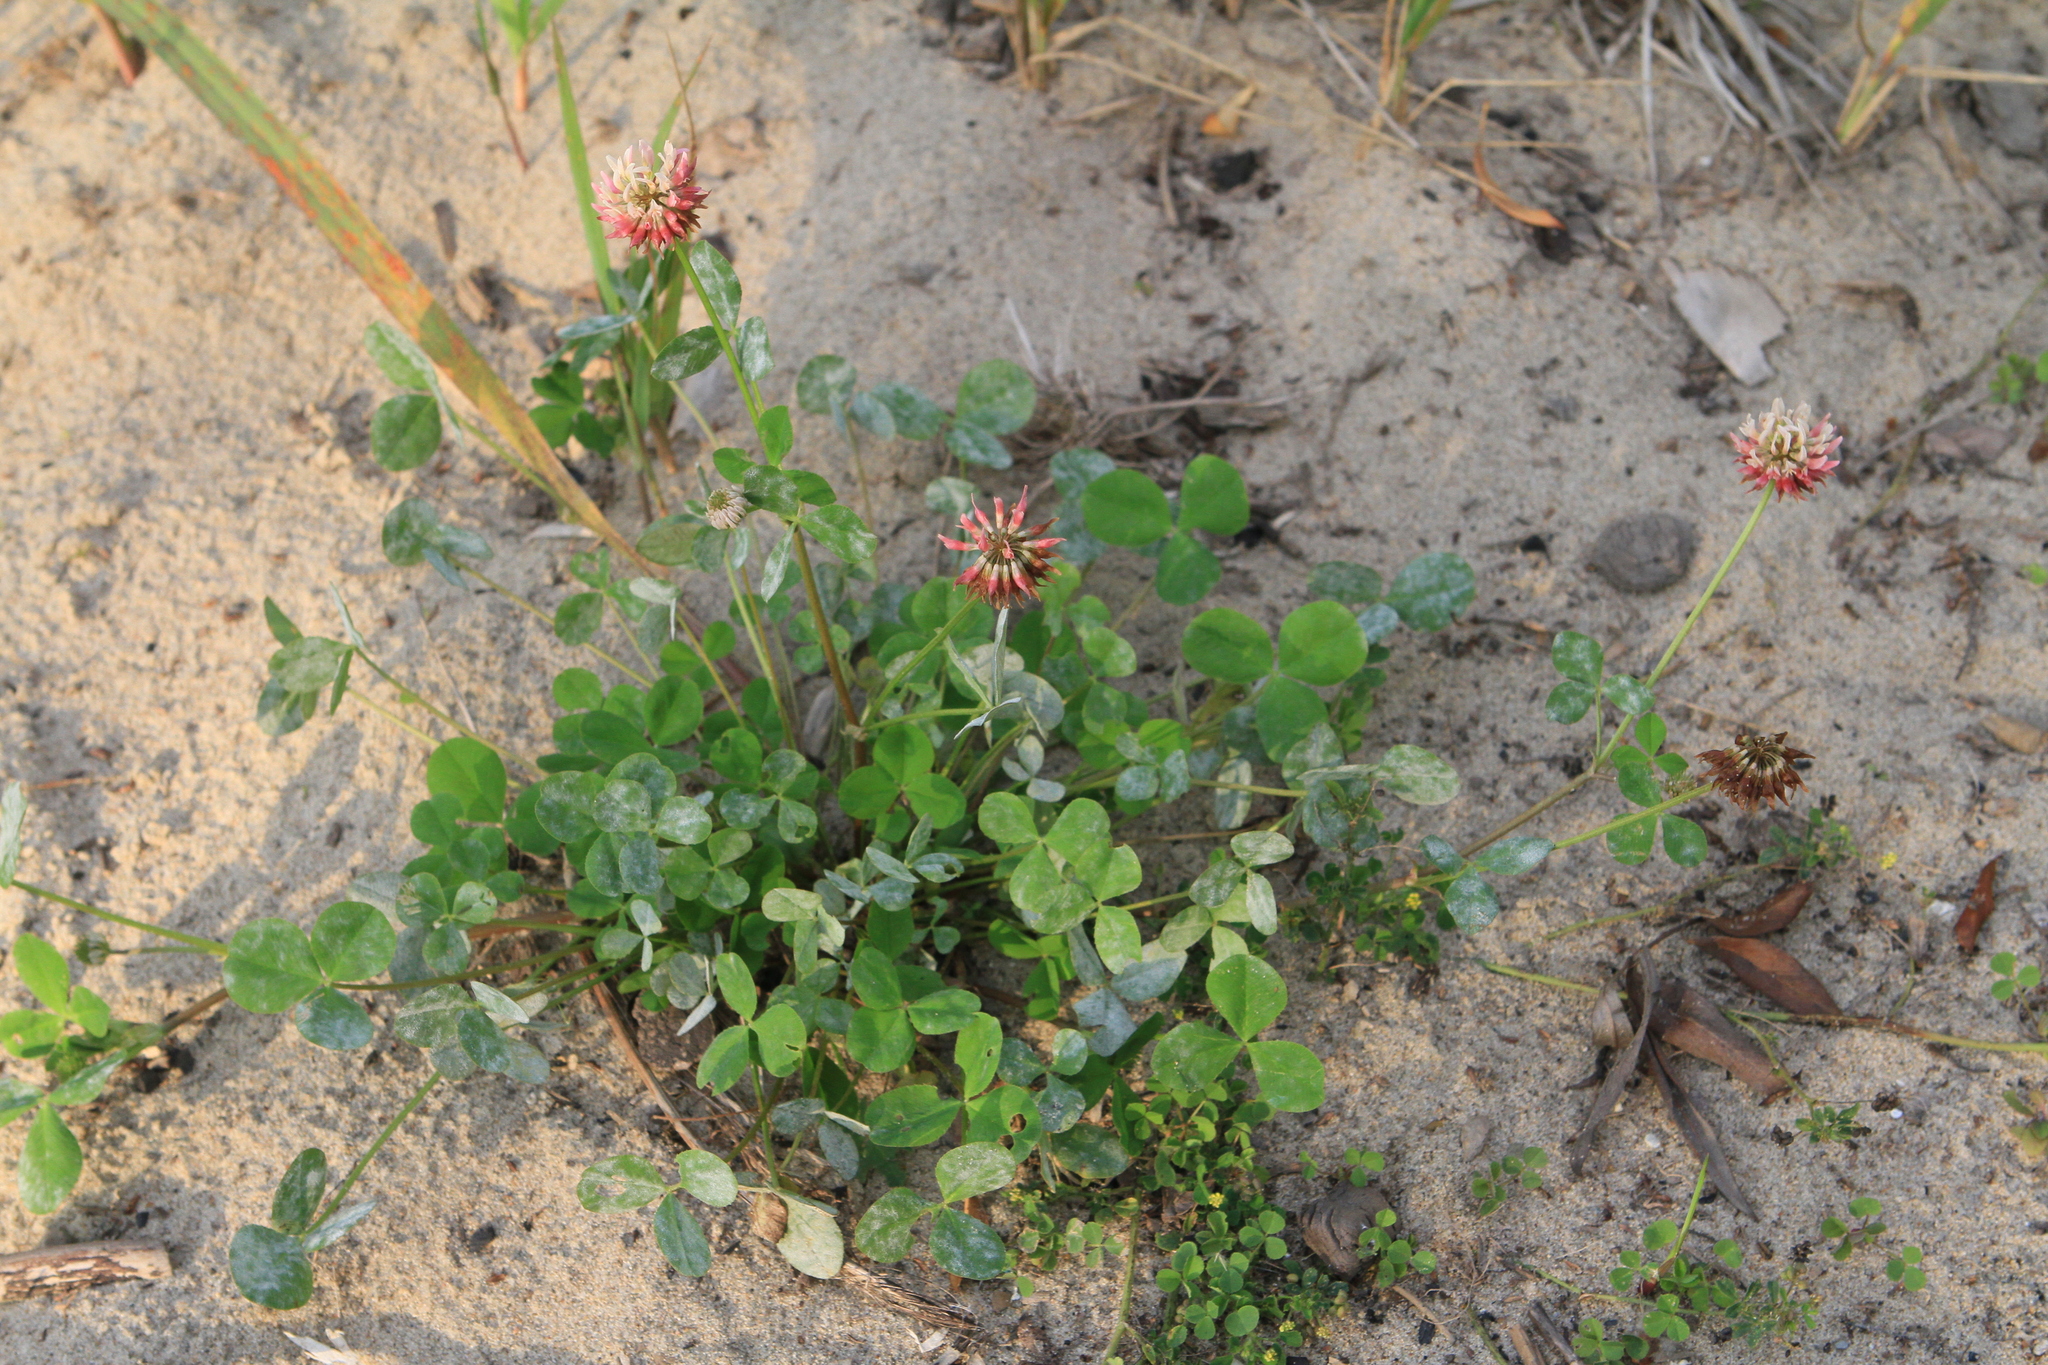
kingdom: Plantae
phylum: Tracheophyta
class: Magnoliopsida
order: Fabales
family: Fabaceae
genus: Trifolium
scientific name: Trifolium hybridum
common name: Alsike clover
